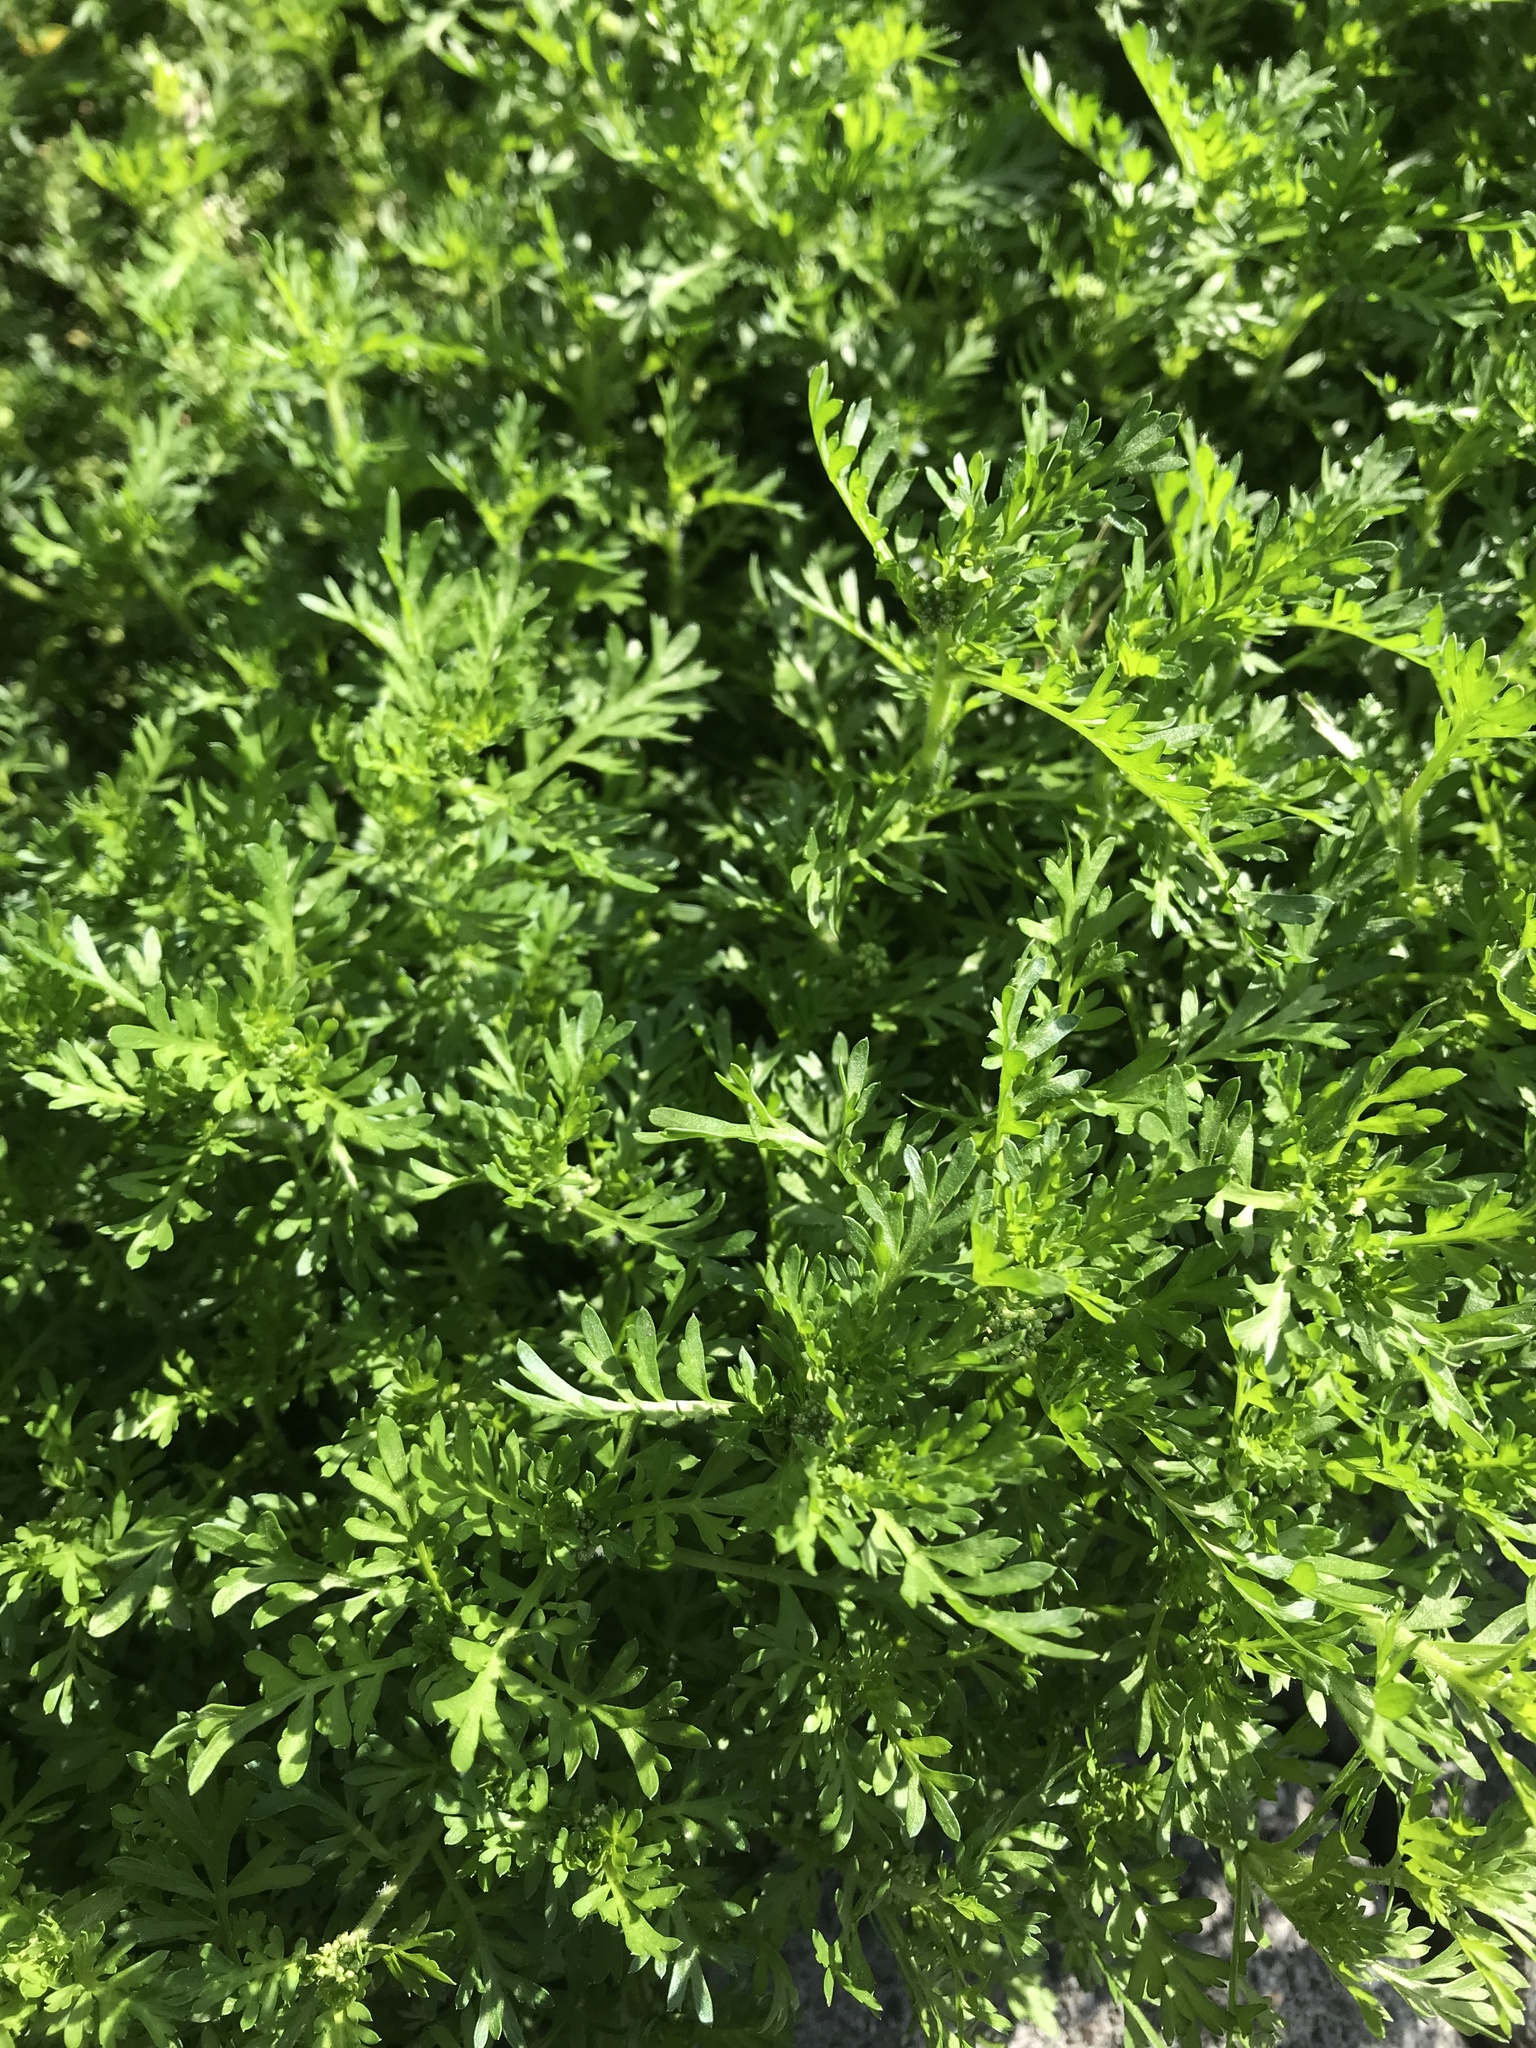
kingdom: Plantae
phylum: Tracheophyta
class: Magnoliopsida
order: Brassicales
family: Brassicaceae
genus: Lepidium
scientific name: Lepidium didymum
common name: Lesser swinecress
